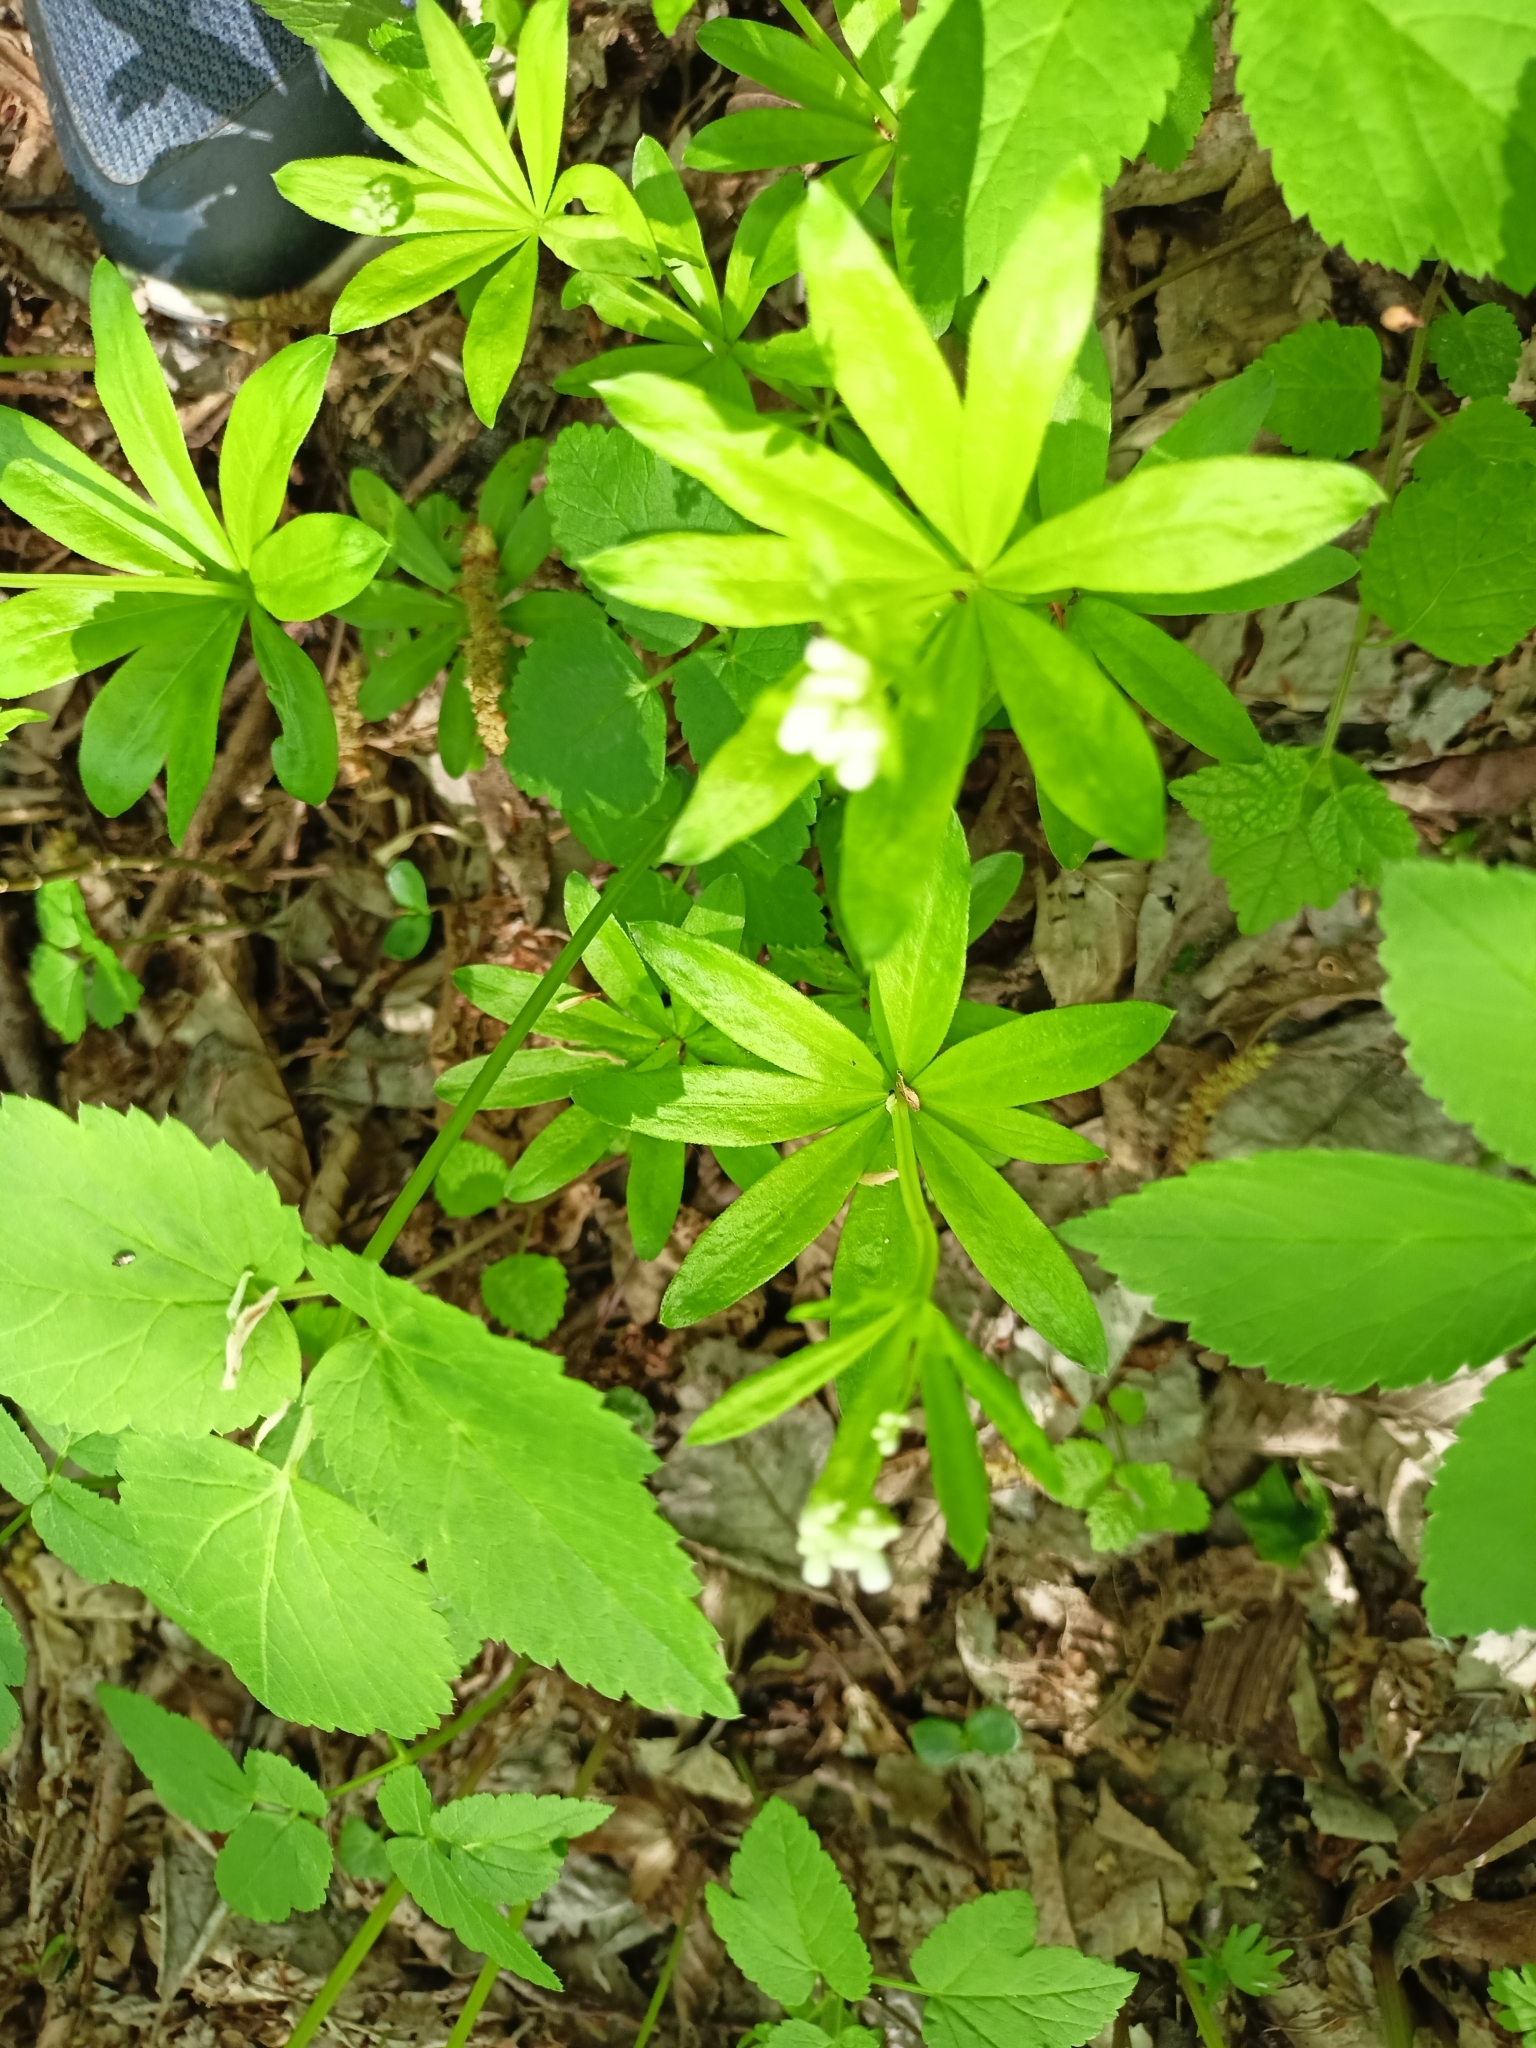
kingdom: Plantae
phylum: Tracheophyta
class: Magnoliopsida
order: Gentianales
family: Rubiaceae
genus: Galium
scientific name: Galium odoratum
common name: Sweet woodruff
